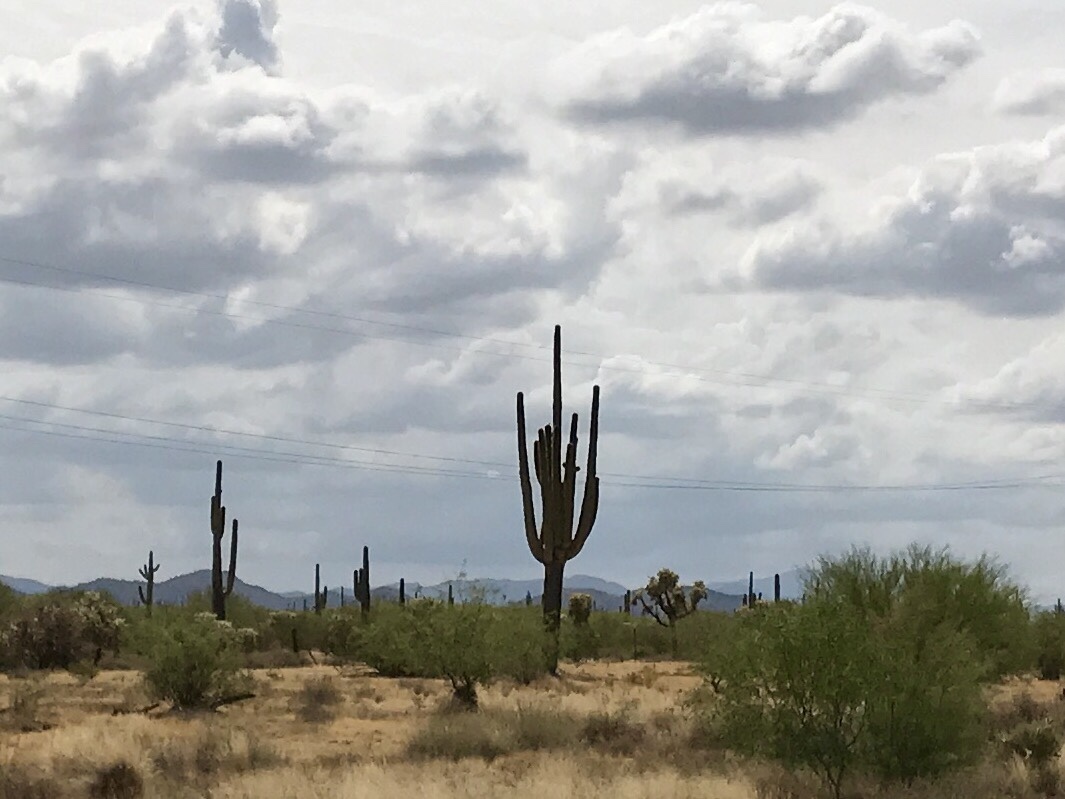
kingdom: Plantae
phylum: Tracheophyta
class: Magnoliopsida
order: Caryophyllales
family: Cactaceae
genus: Carnegiea
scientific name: Carnegiea gigantea
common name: Saguaro
